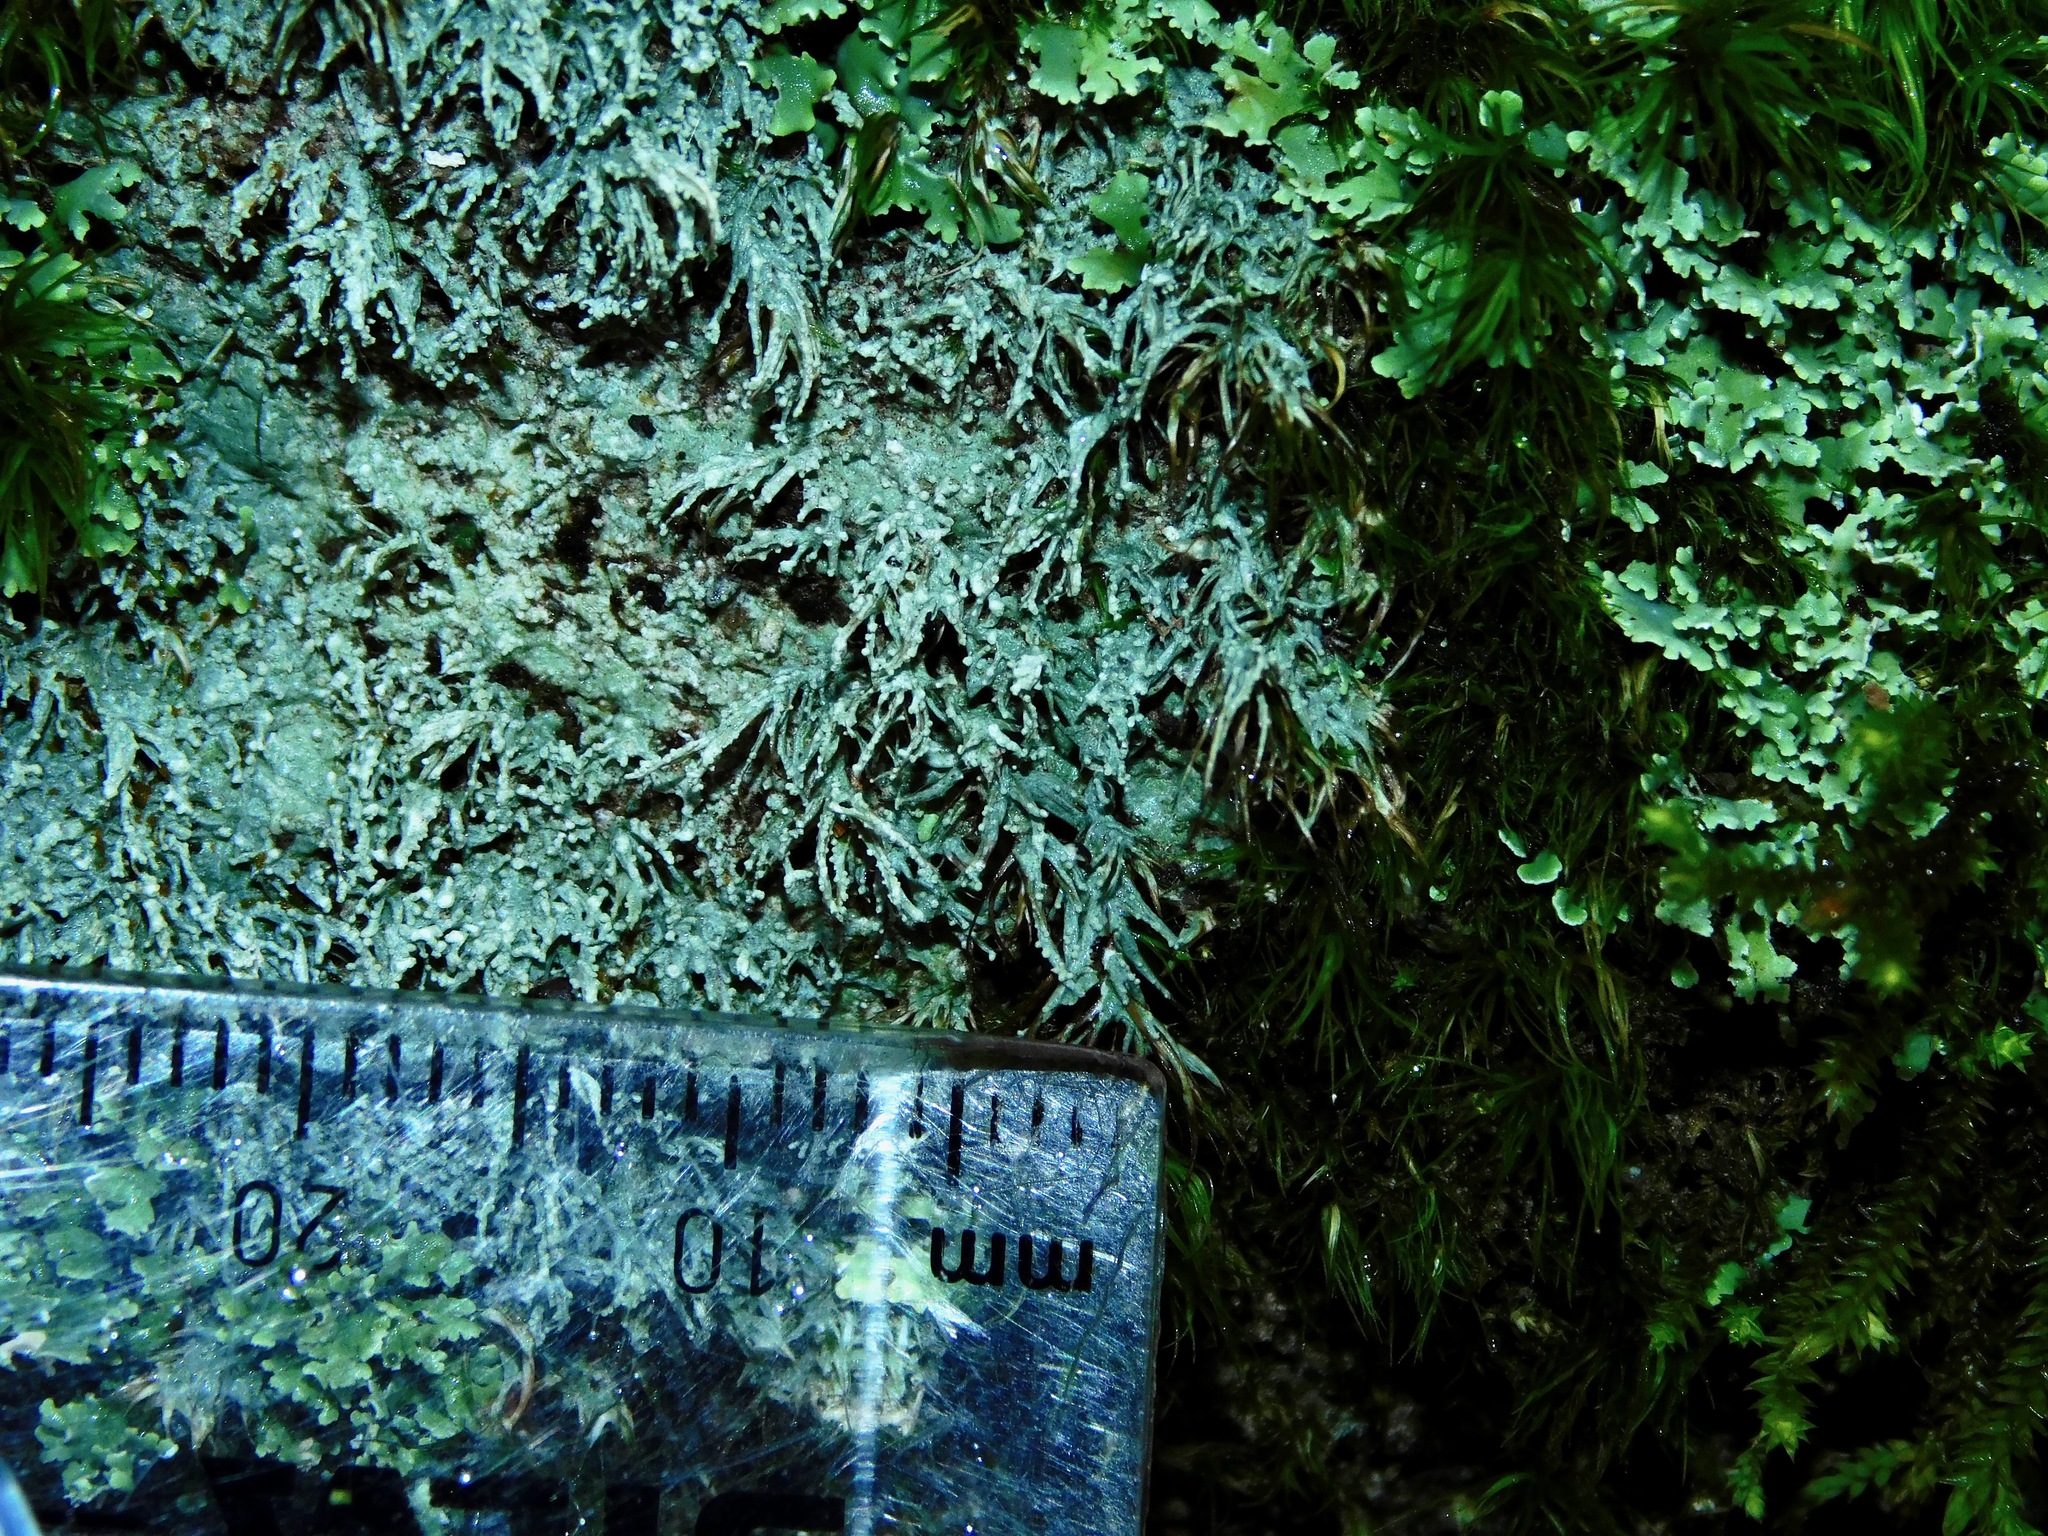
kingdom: Fungi
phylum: Ascomycota
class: Lecanoromycetes
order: Pertusariales
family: Ochrolechiaceae
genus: Ochrolechia
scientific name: Ochrolechia yasudae
